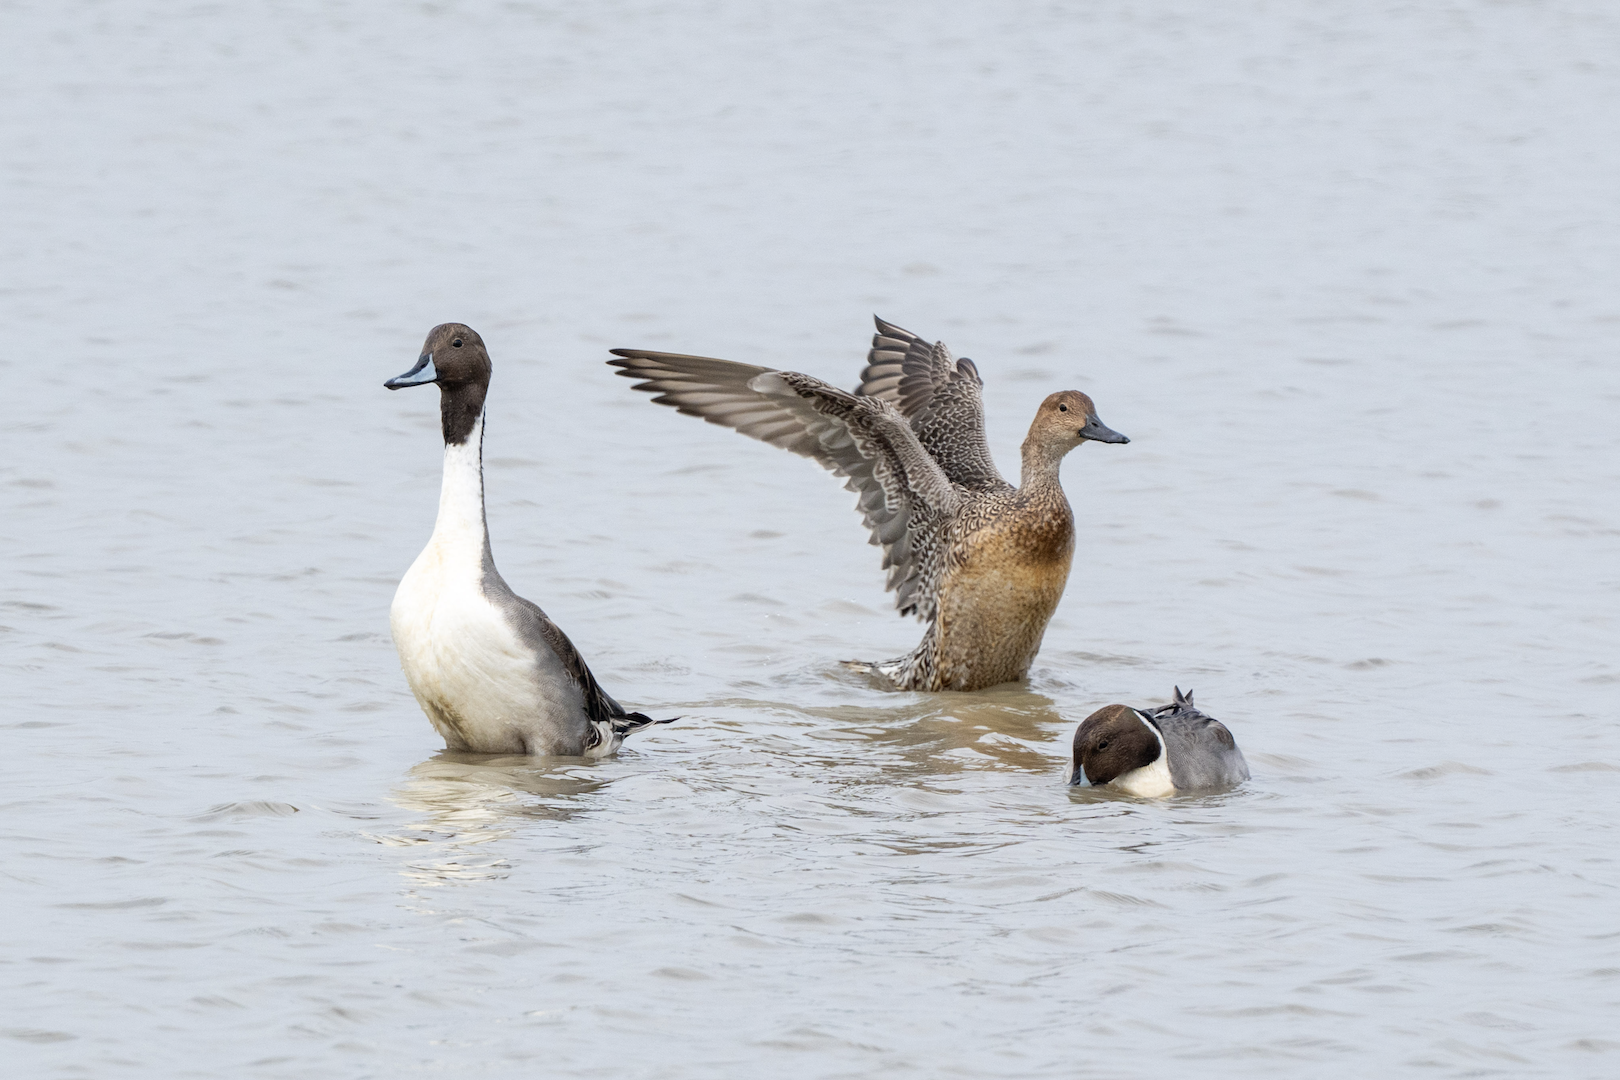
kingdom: Animalia
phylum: Chordata
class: Aves
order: Anseriformes
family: Anatidae
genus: Anas
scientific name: Anas acuta
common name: Northern pintail
